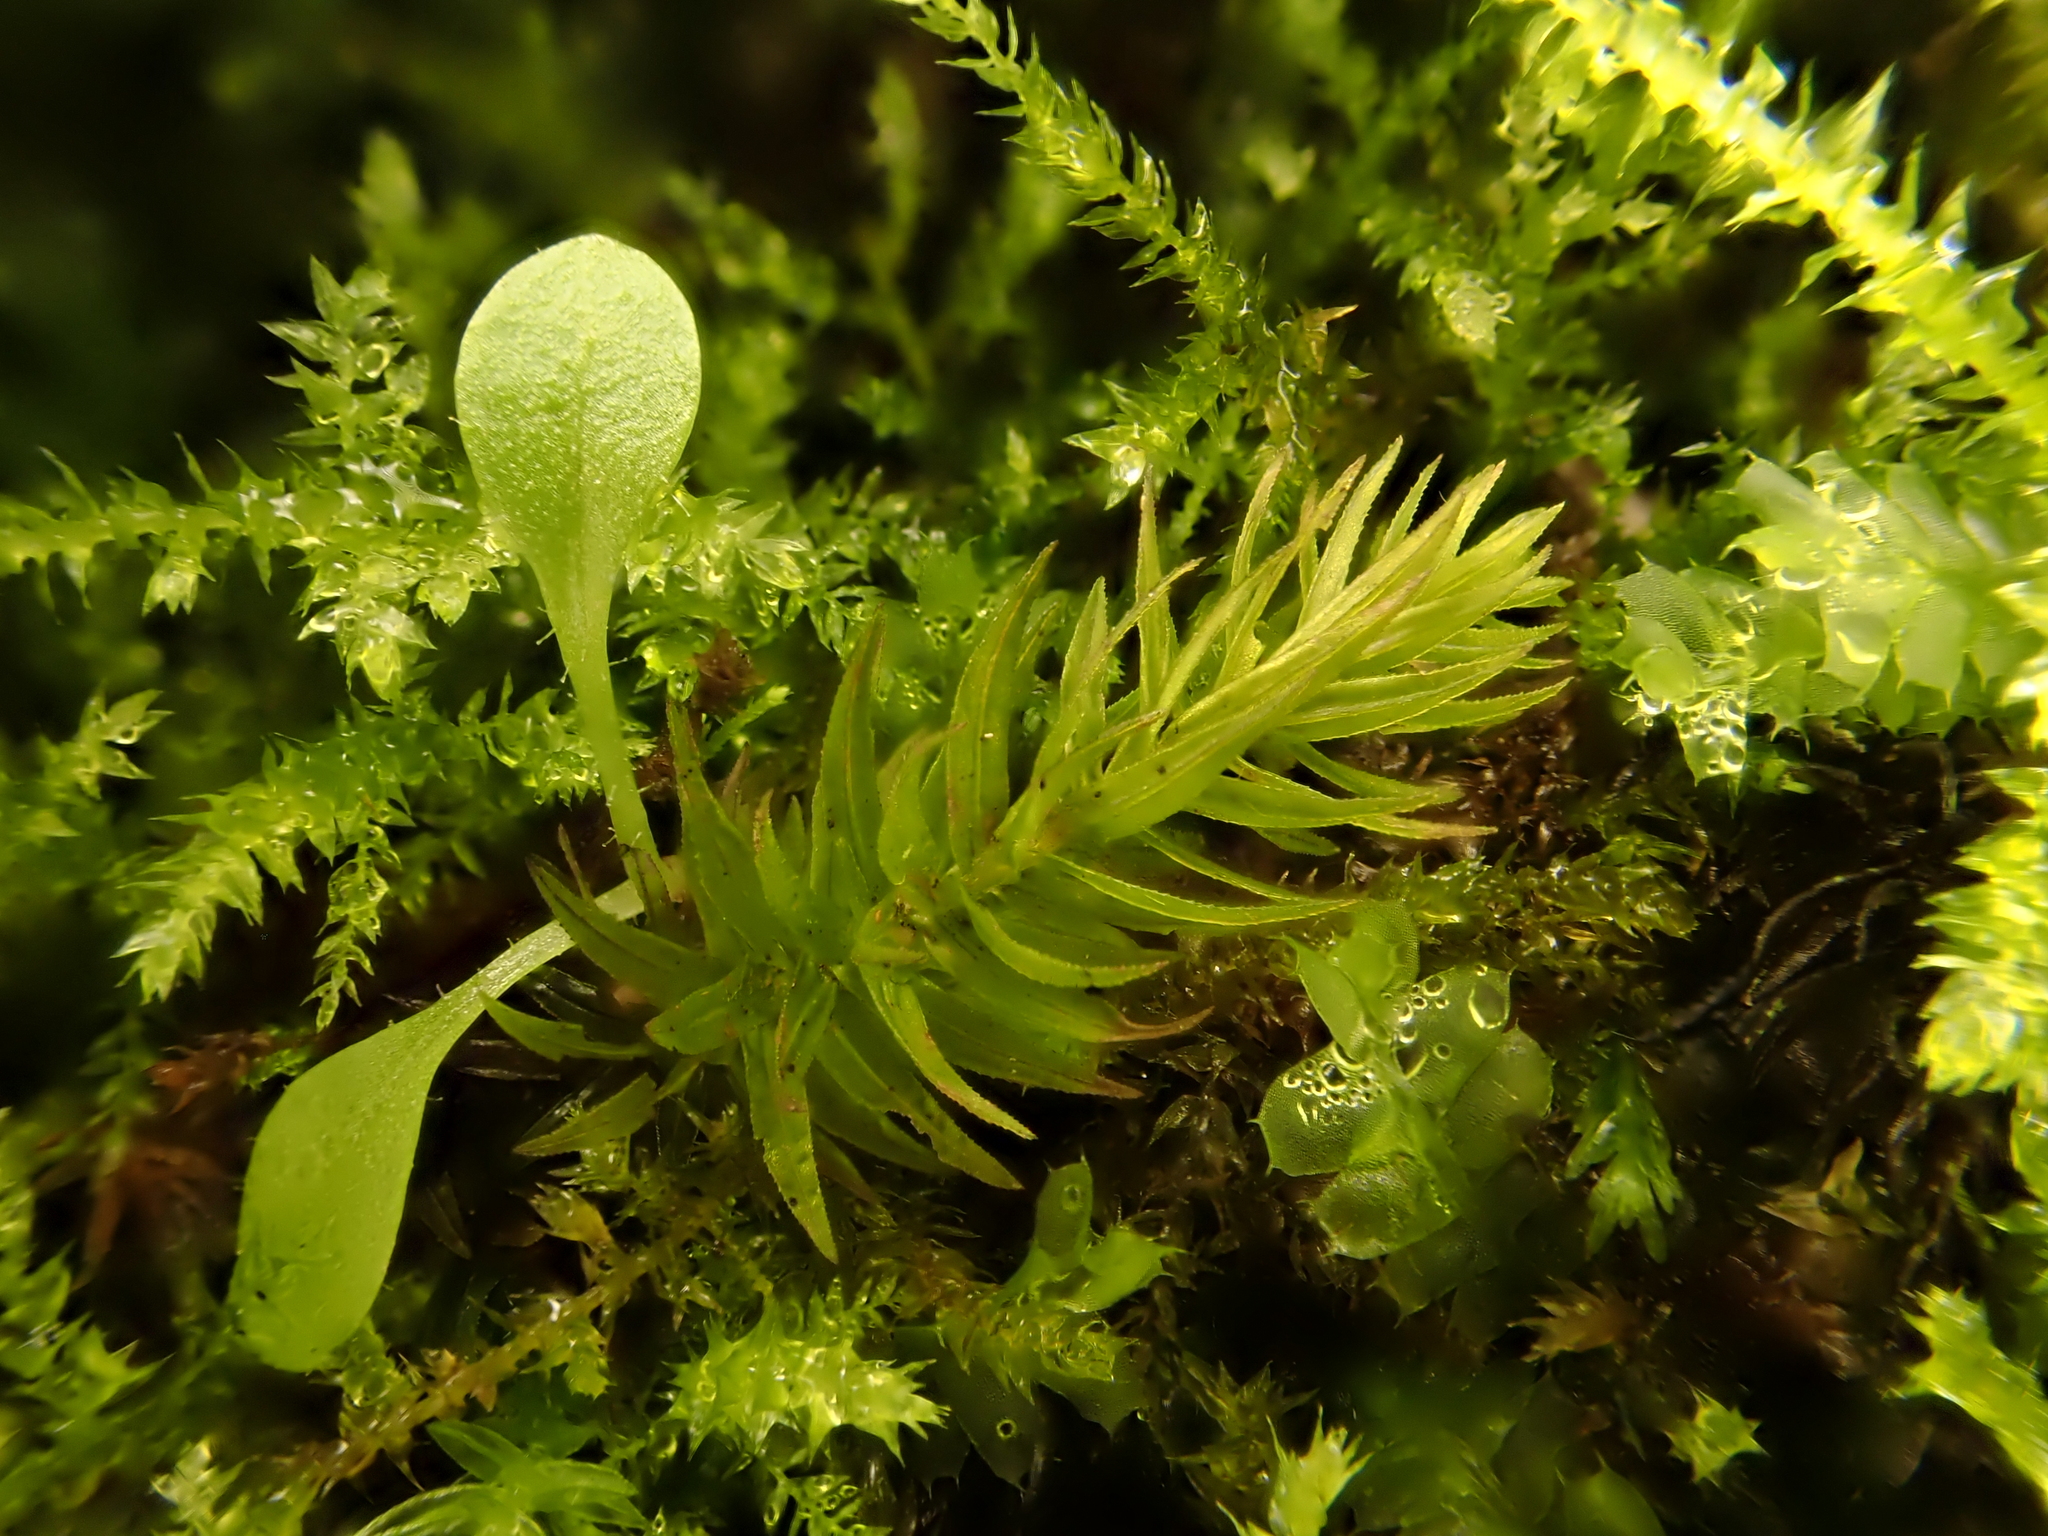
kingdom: Plantae
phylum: Bryophyta
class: Bryopsida
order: Aulacomniales
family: Aulacomniaceae
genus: Hymenodontopsis
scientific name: Hymenodontopsis mnioides
